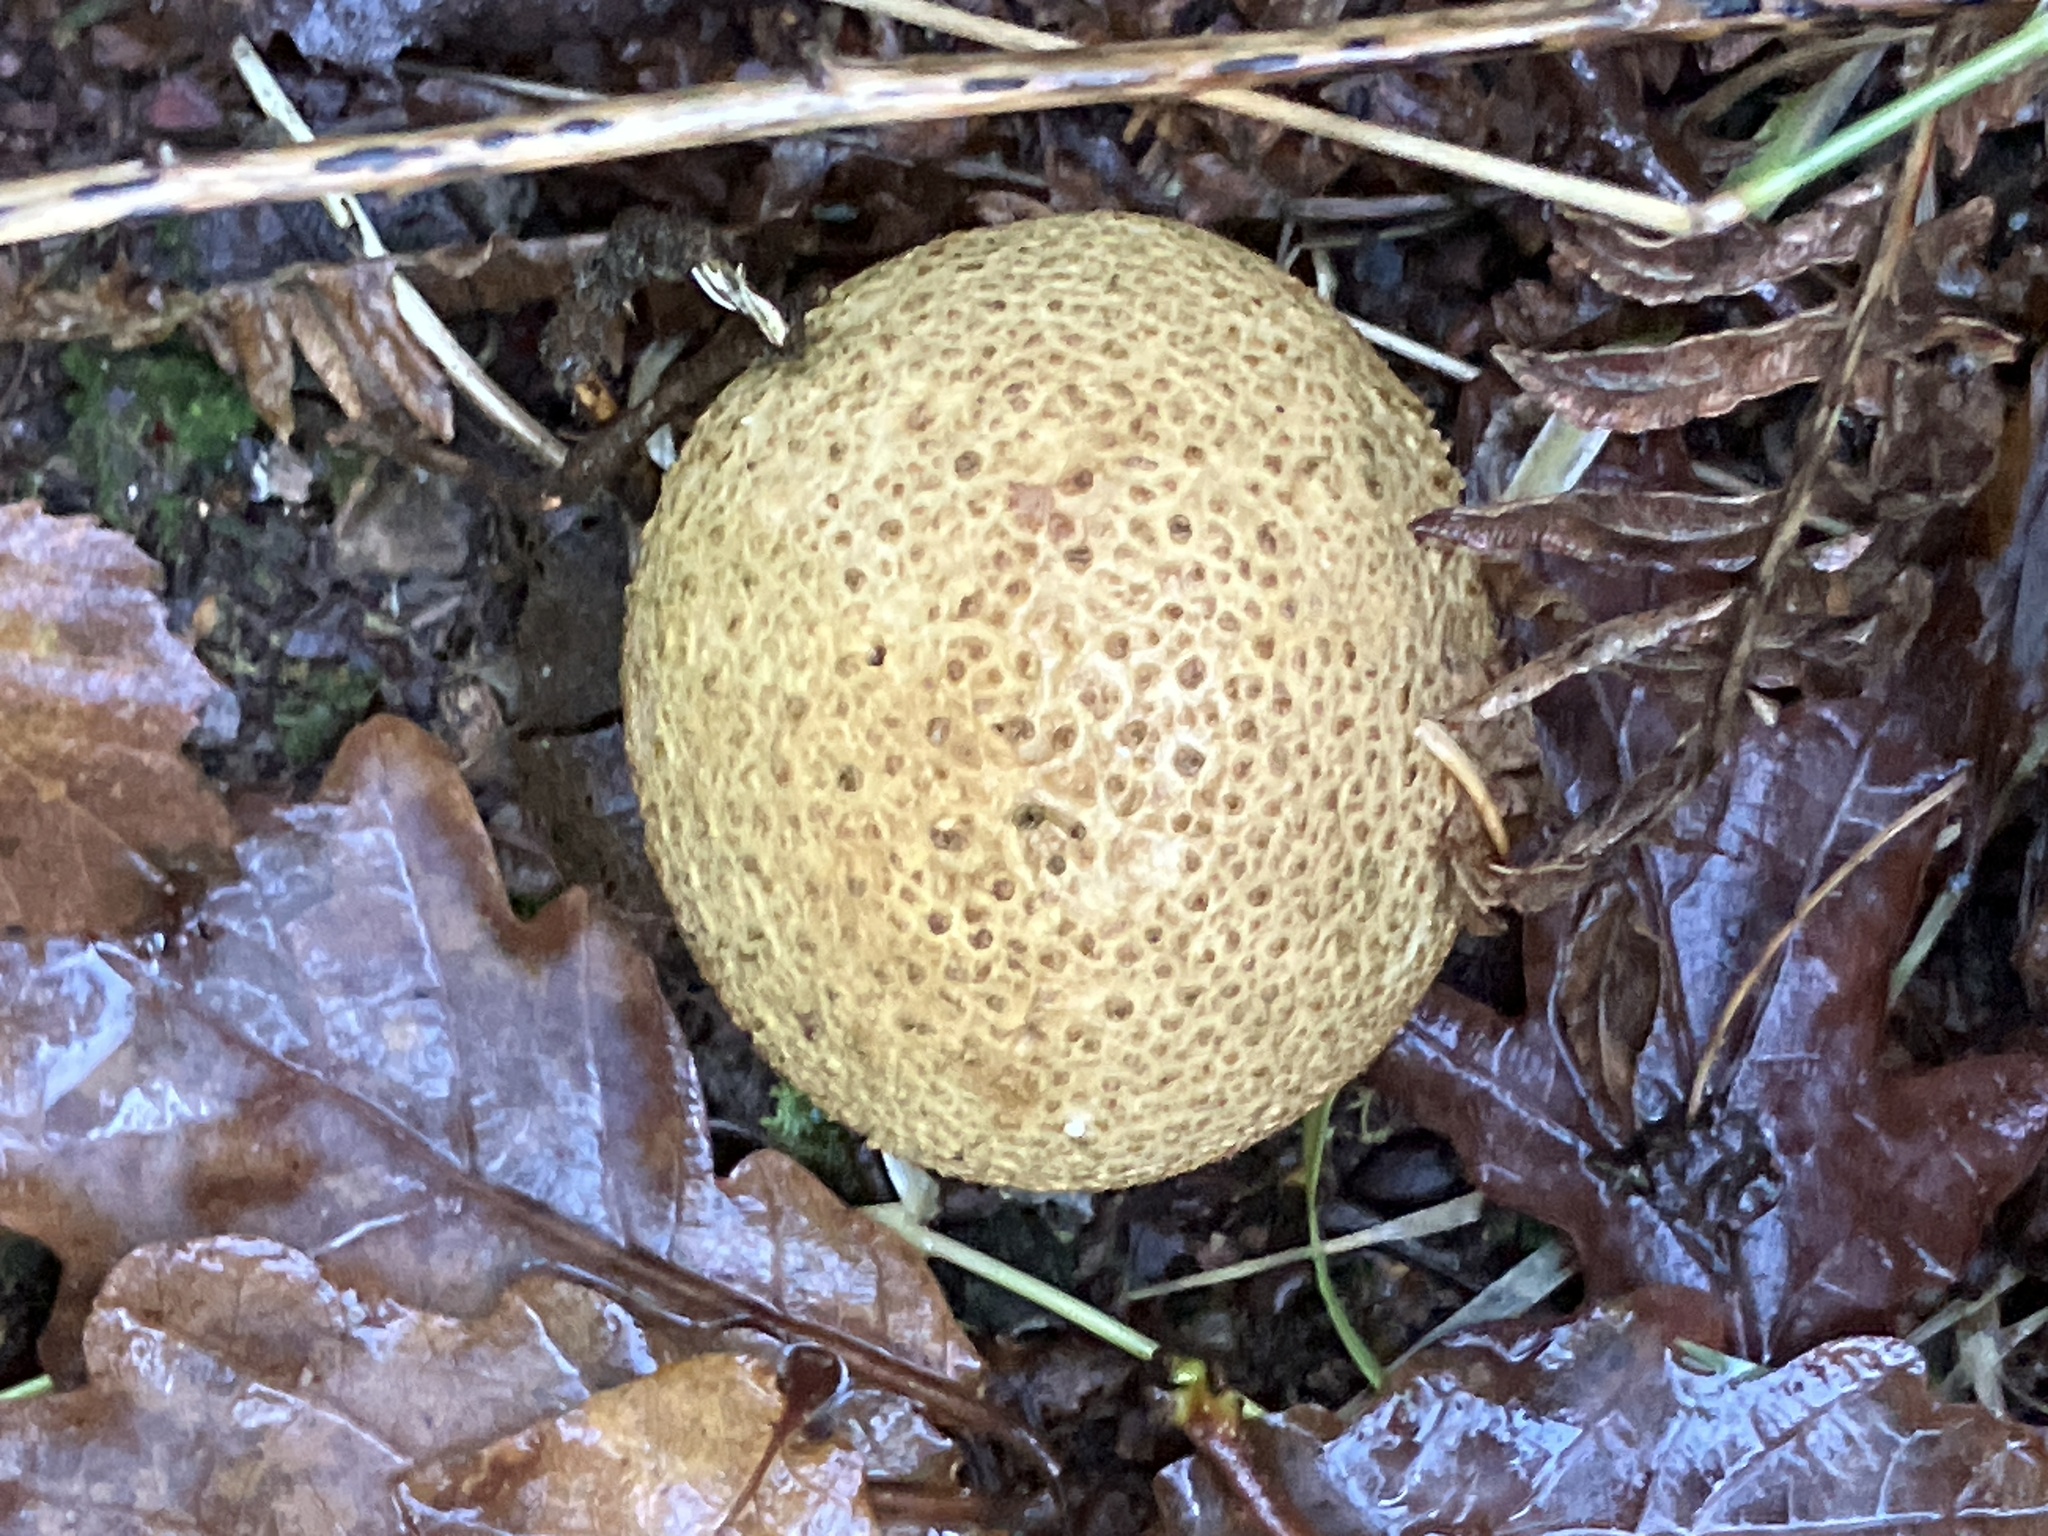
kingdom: Fungi
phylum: Basidiomycota
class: Agaricomycetes
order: Boletales
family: Sclerodermataceae
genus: Scleroderma
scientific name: Scleroderma citrinum
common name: Common earthball
